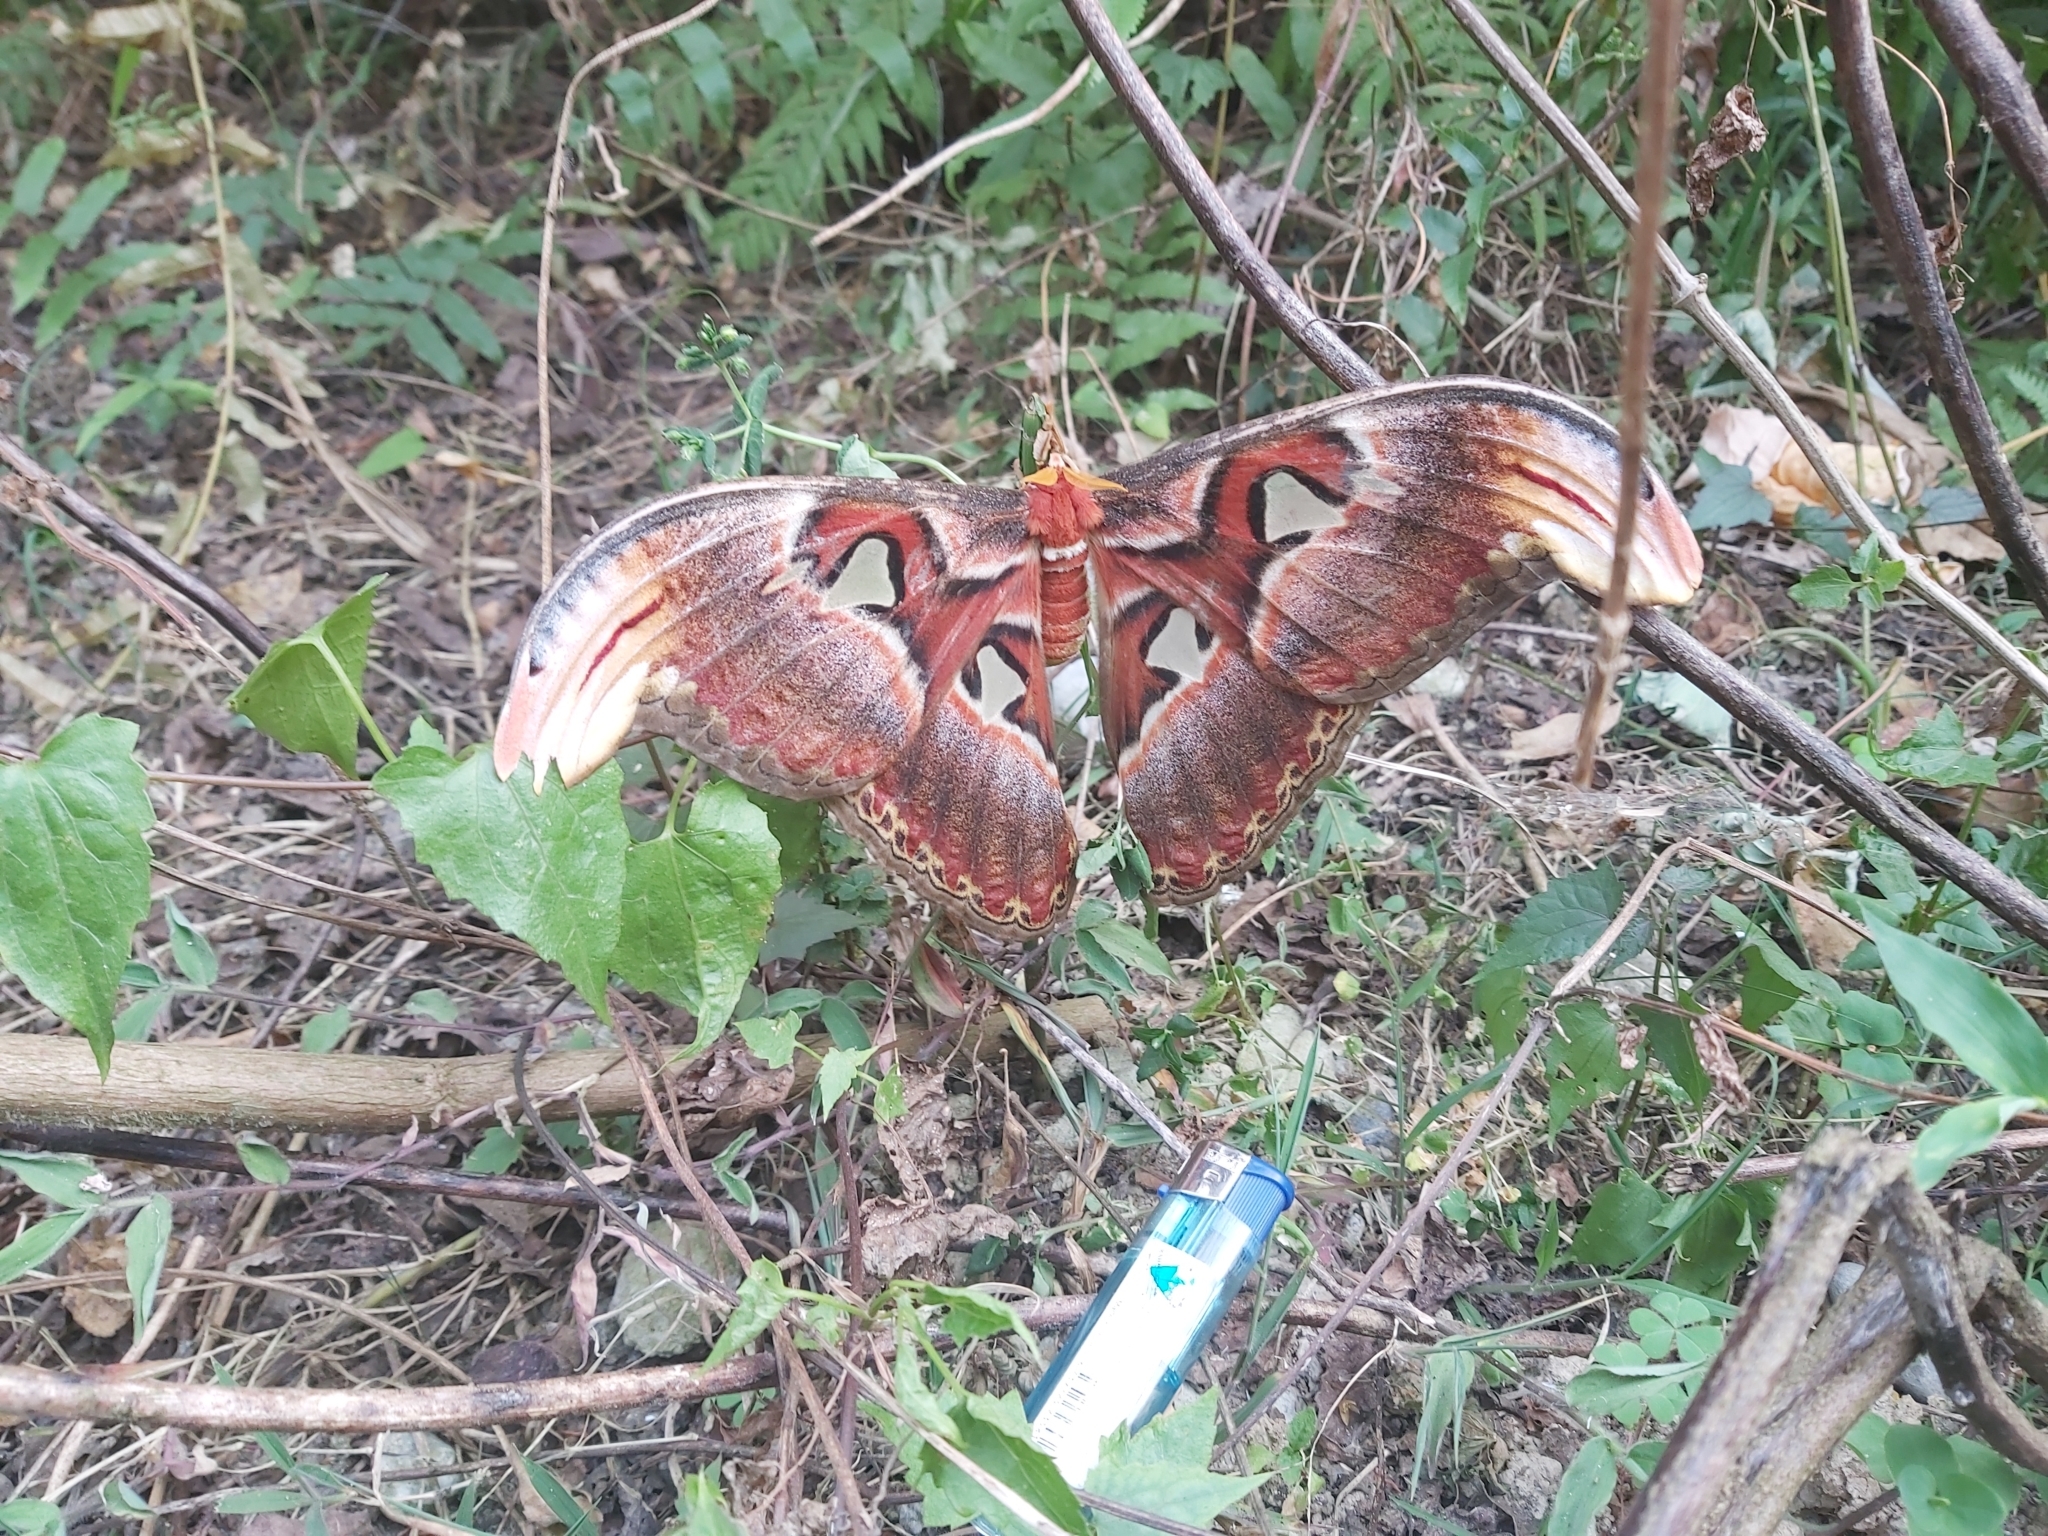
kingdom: Animalia
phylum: Arthropoda
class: Insecta
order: Lepidoptera
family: Saturniidae
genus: Attacus
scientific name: Attacus atlas
